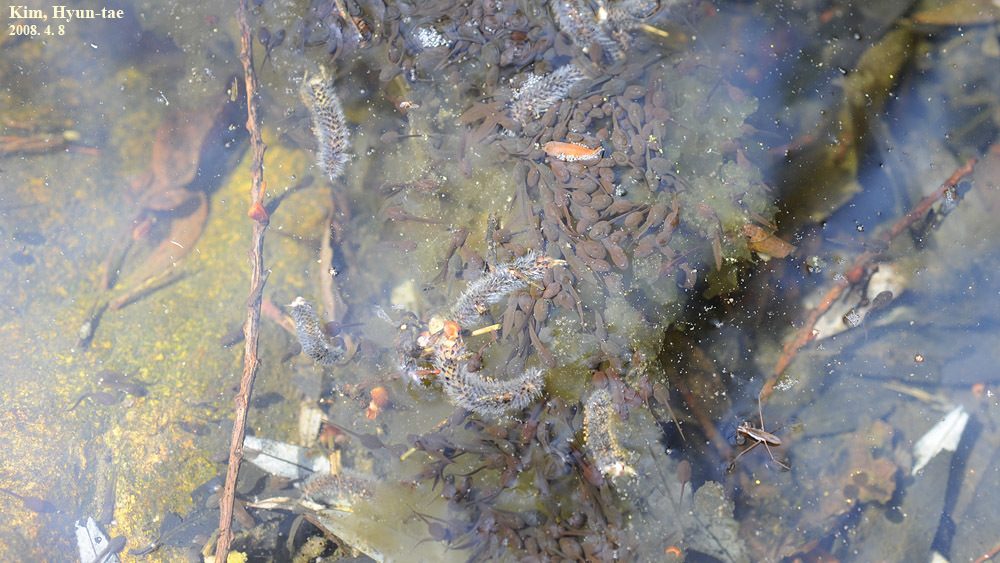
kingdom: Animalia
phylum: Chordata
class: Amphibia
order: Anura
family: Ranidae
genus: Rana
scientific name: Rana uenoi
